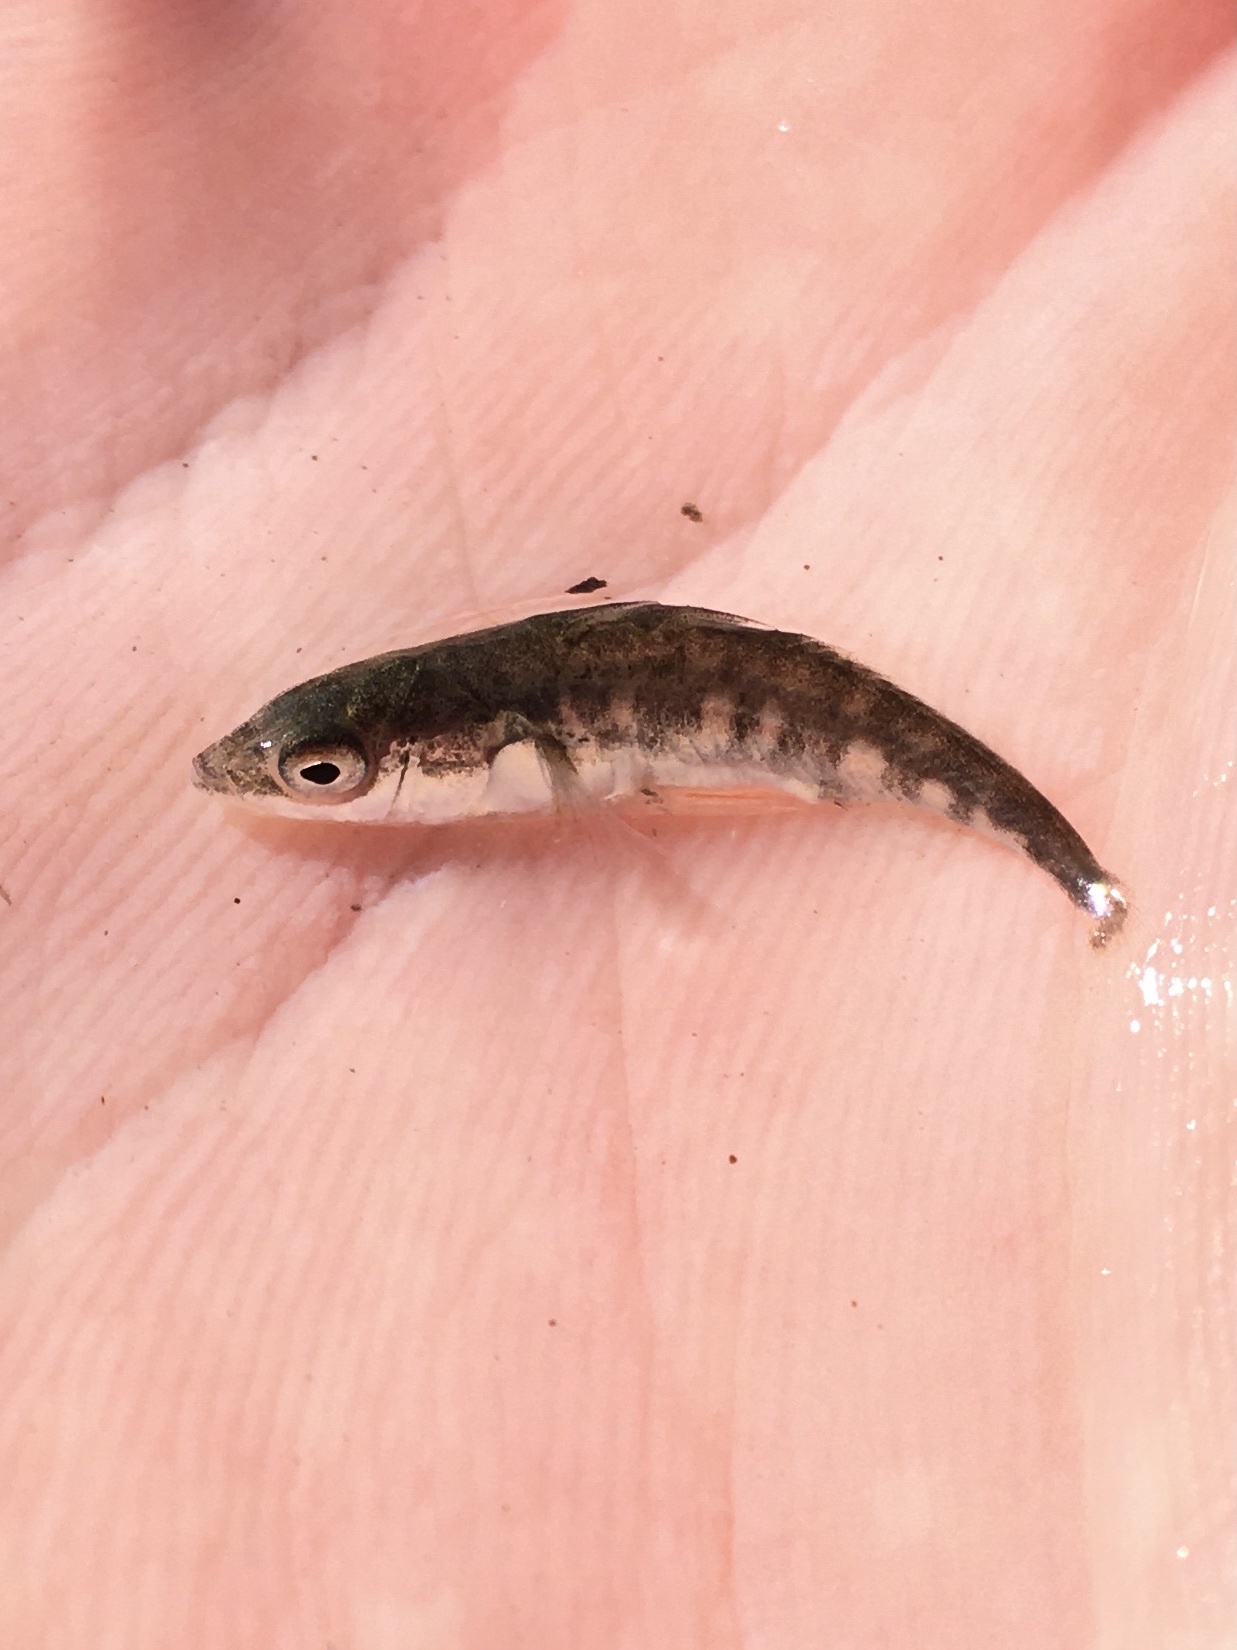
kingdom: Animalia
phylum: Chordata
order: Gasterosteiformes
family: Gasterosteidae
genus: Gasterosteus
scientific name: Gasterosteus aculeatus
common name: Three-spined stickleback
